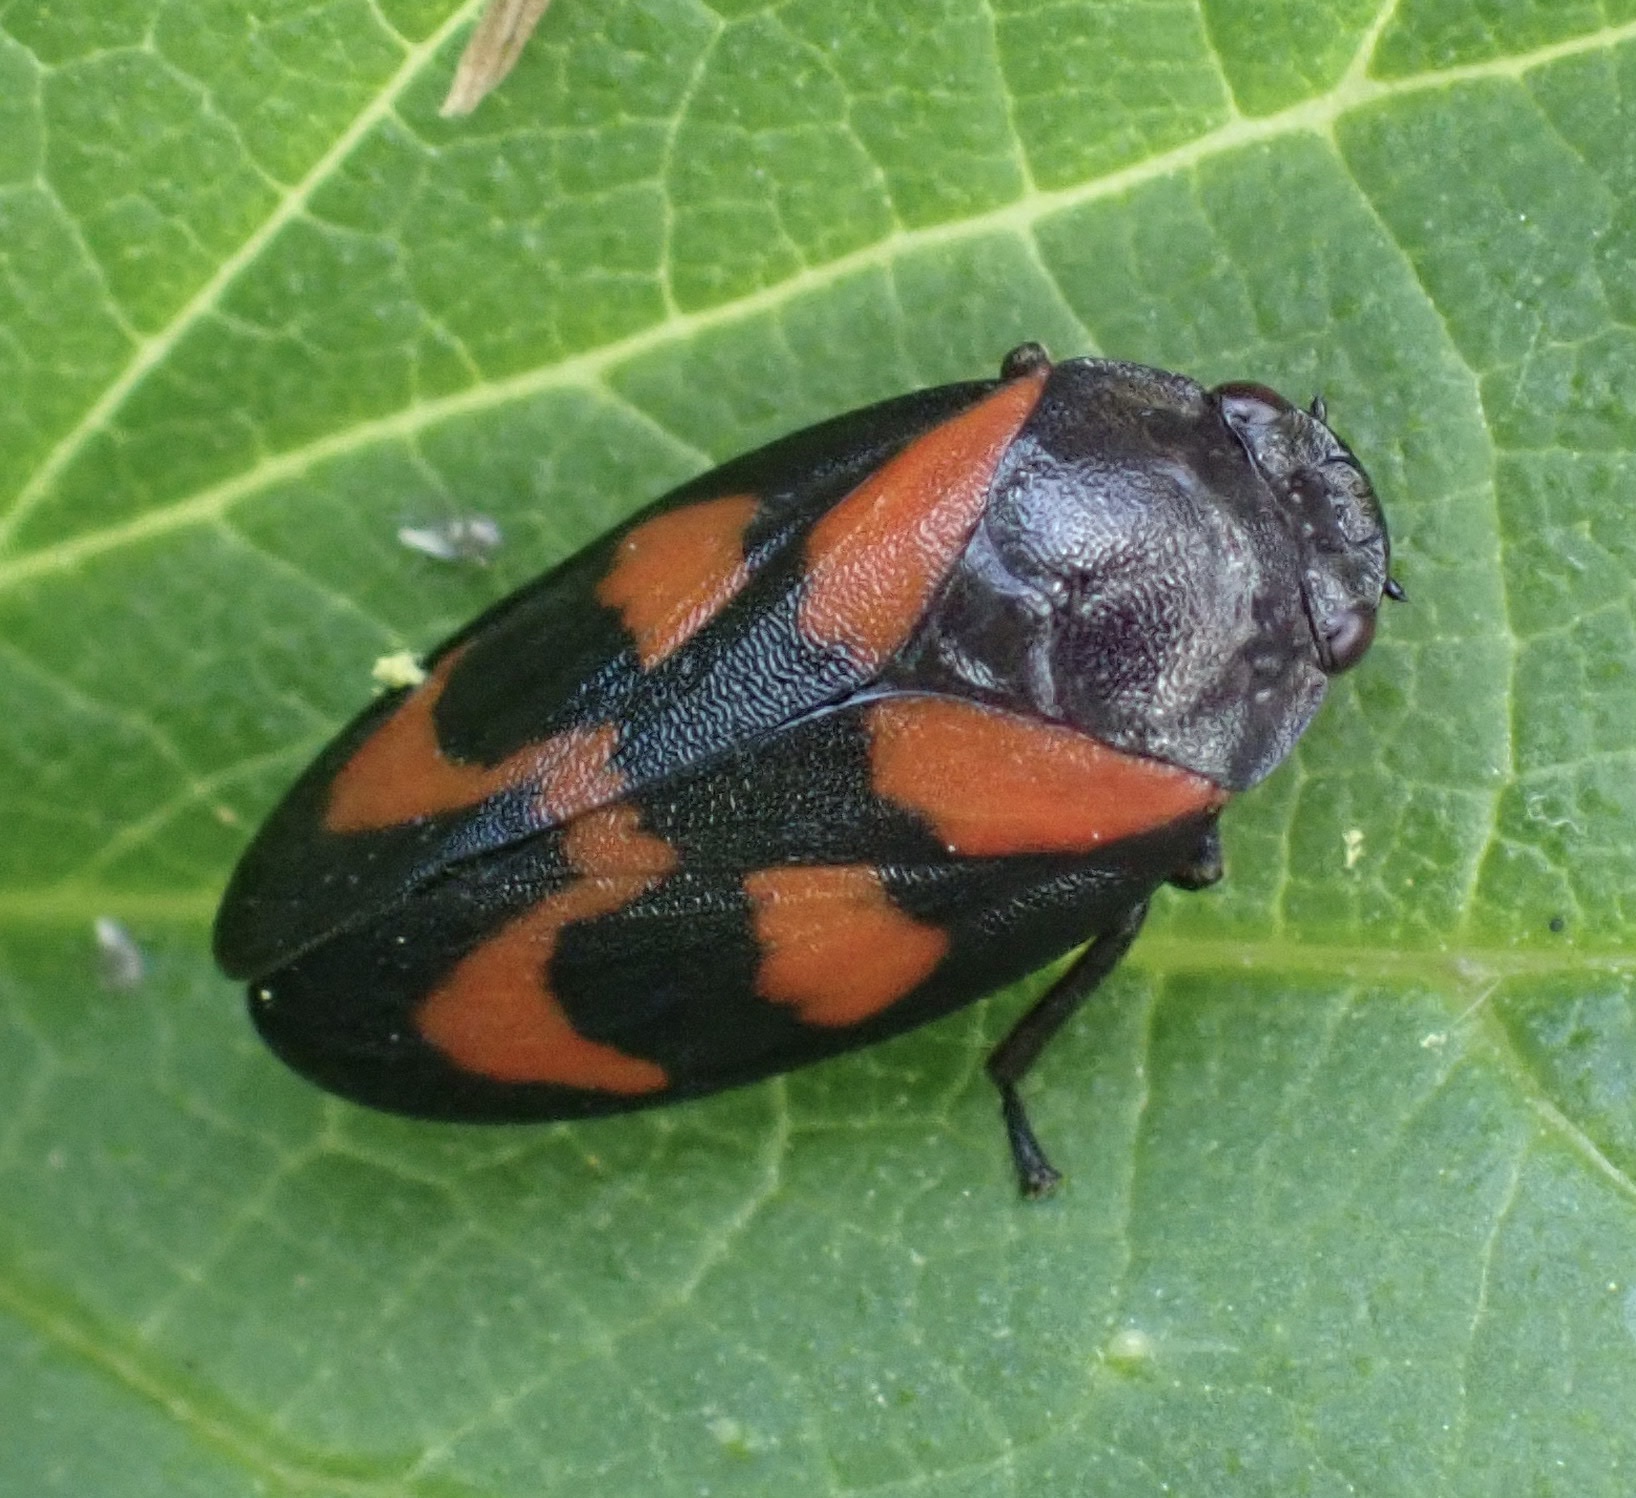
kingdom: Animalia
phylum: Arthropoda
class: Insecta
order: Hemiptera
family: Cercopidae
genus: Cercopis
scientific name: Cercopis vulnerata
